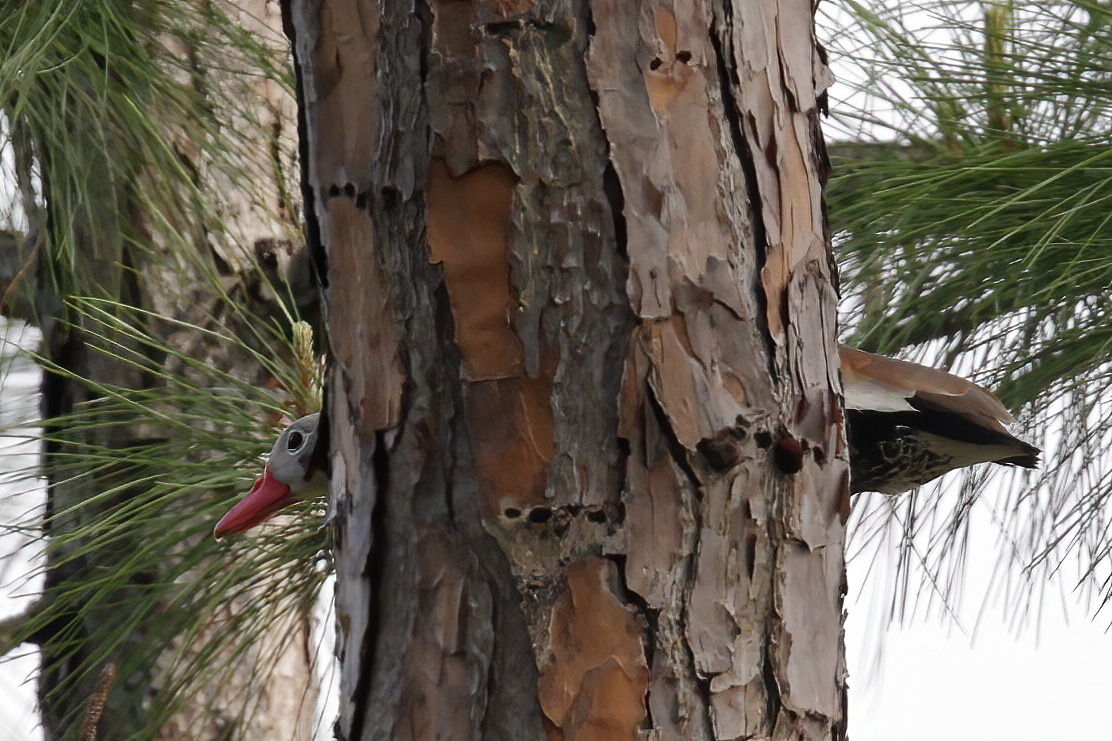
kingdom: Animalia
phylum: Chordata
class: Aves
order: Anseriformes
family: Anatidae
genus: Dendrocygna
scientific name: Dendrocygna autumnalis
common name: Black-bellied whistling duck
